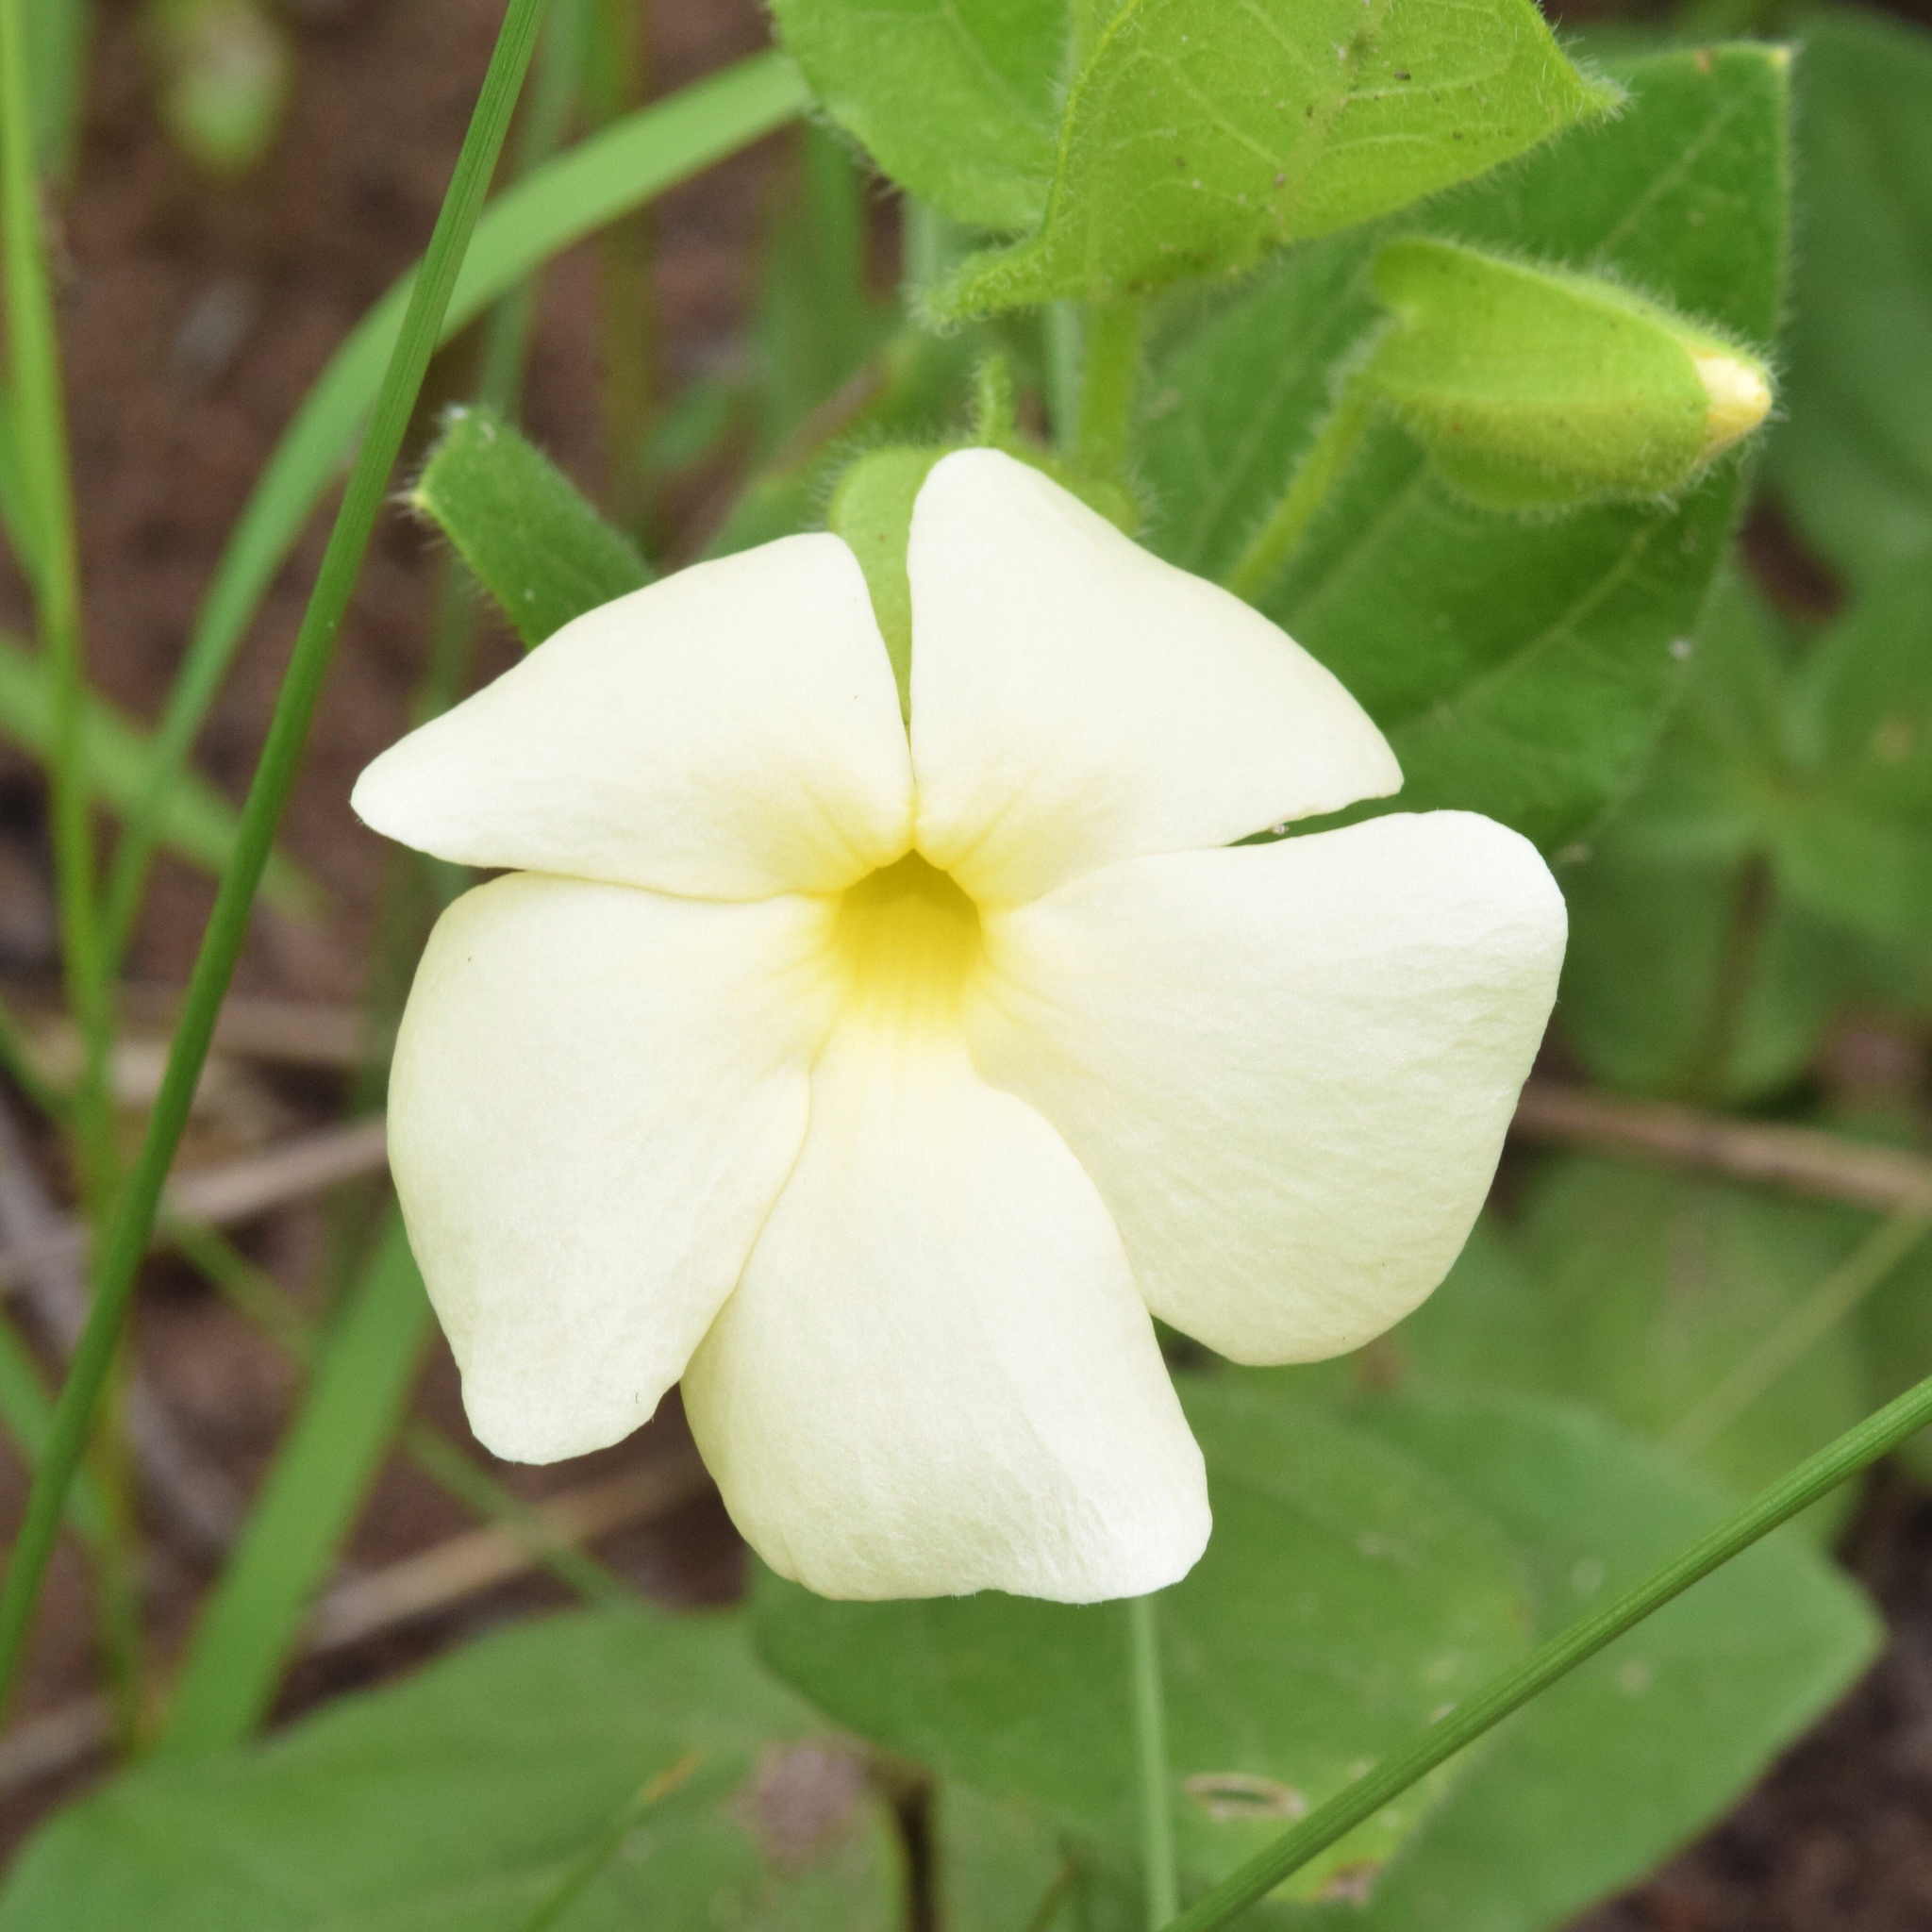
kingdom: Plantae
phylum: Tracheophyta
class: Magnoliopsida
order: Lamiales
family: Acanthaceae
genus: Thunbergia
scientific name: Thunbergia atriplicifolia
